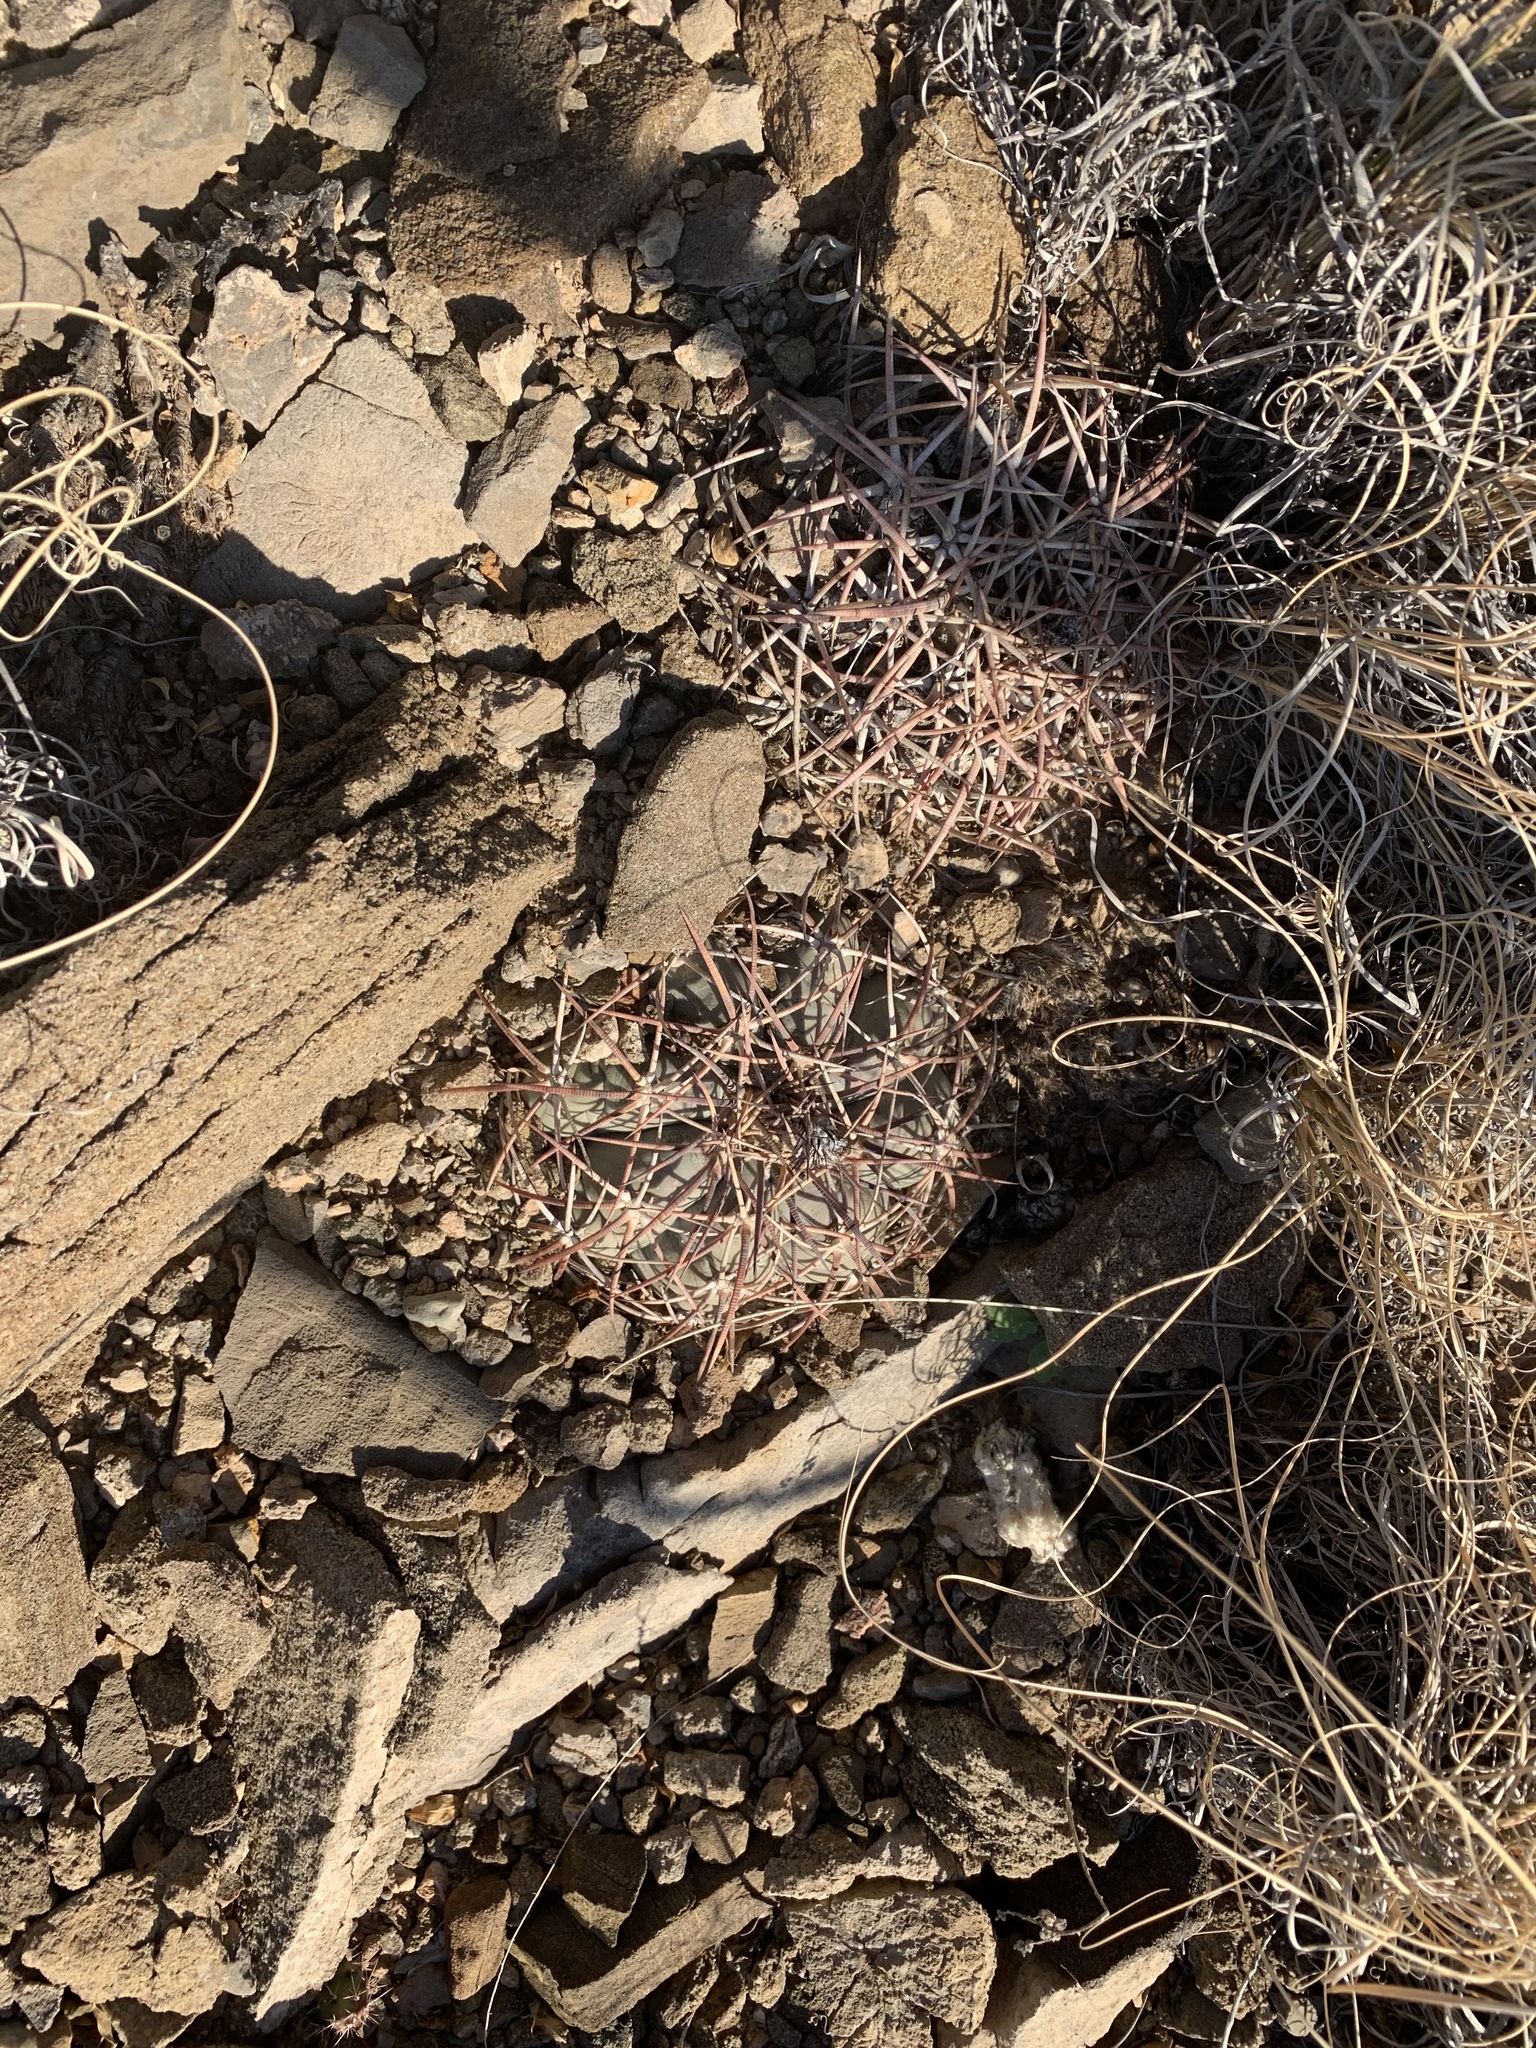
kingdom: Plantae
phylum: Tracheophyta
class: Magnoliopsida
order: Caryophyllales
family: Cactaceae
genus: Echinocactus
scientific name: Echinocactus horizonthalonius
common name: Devilshead
